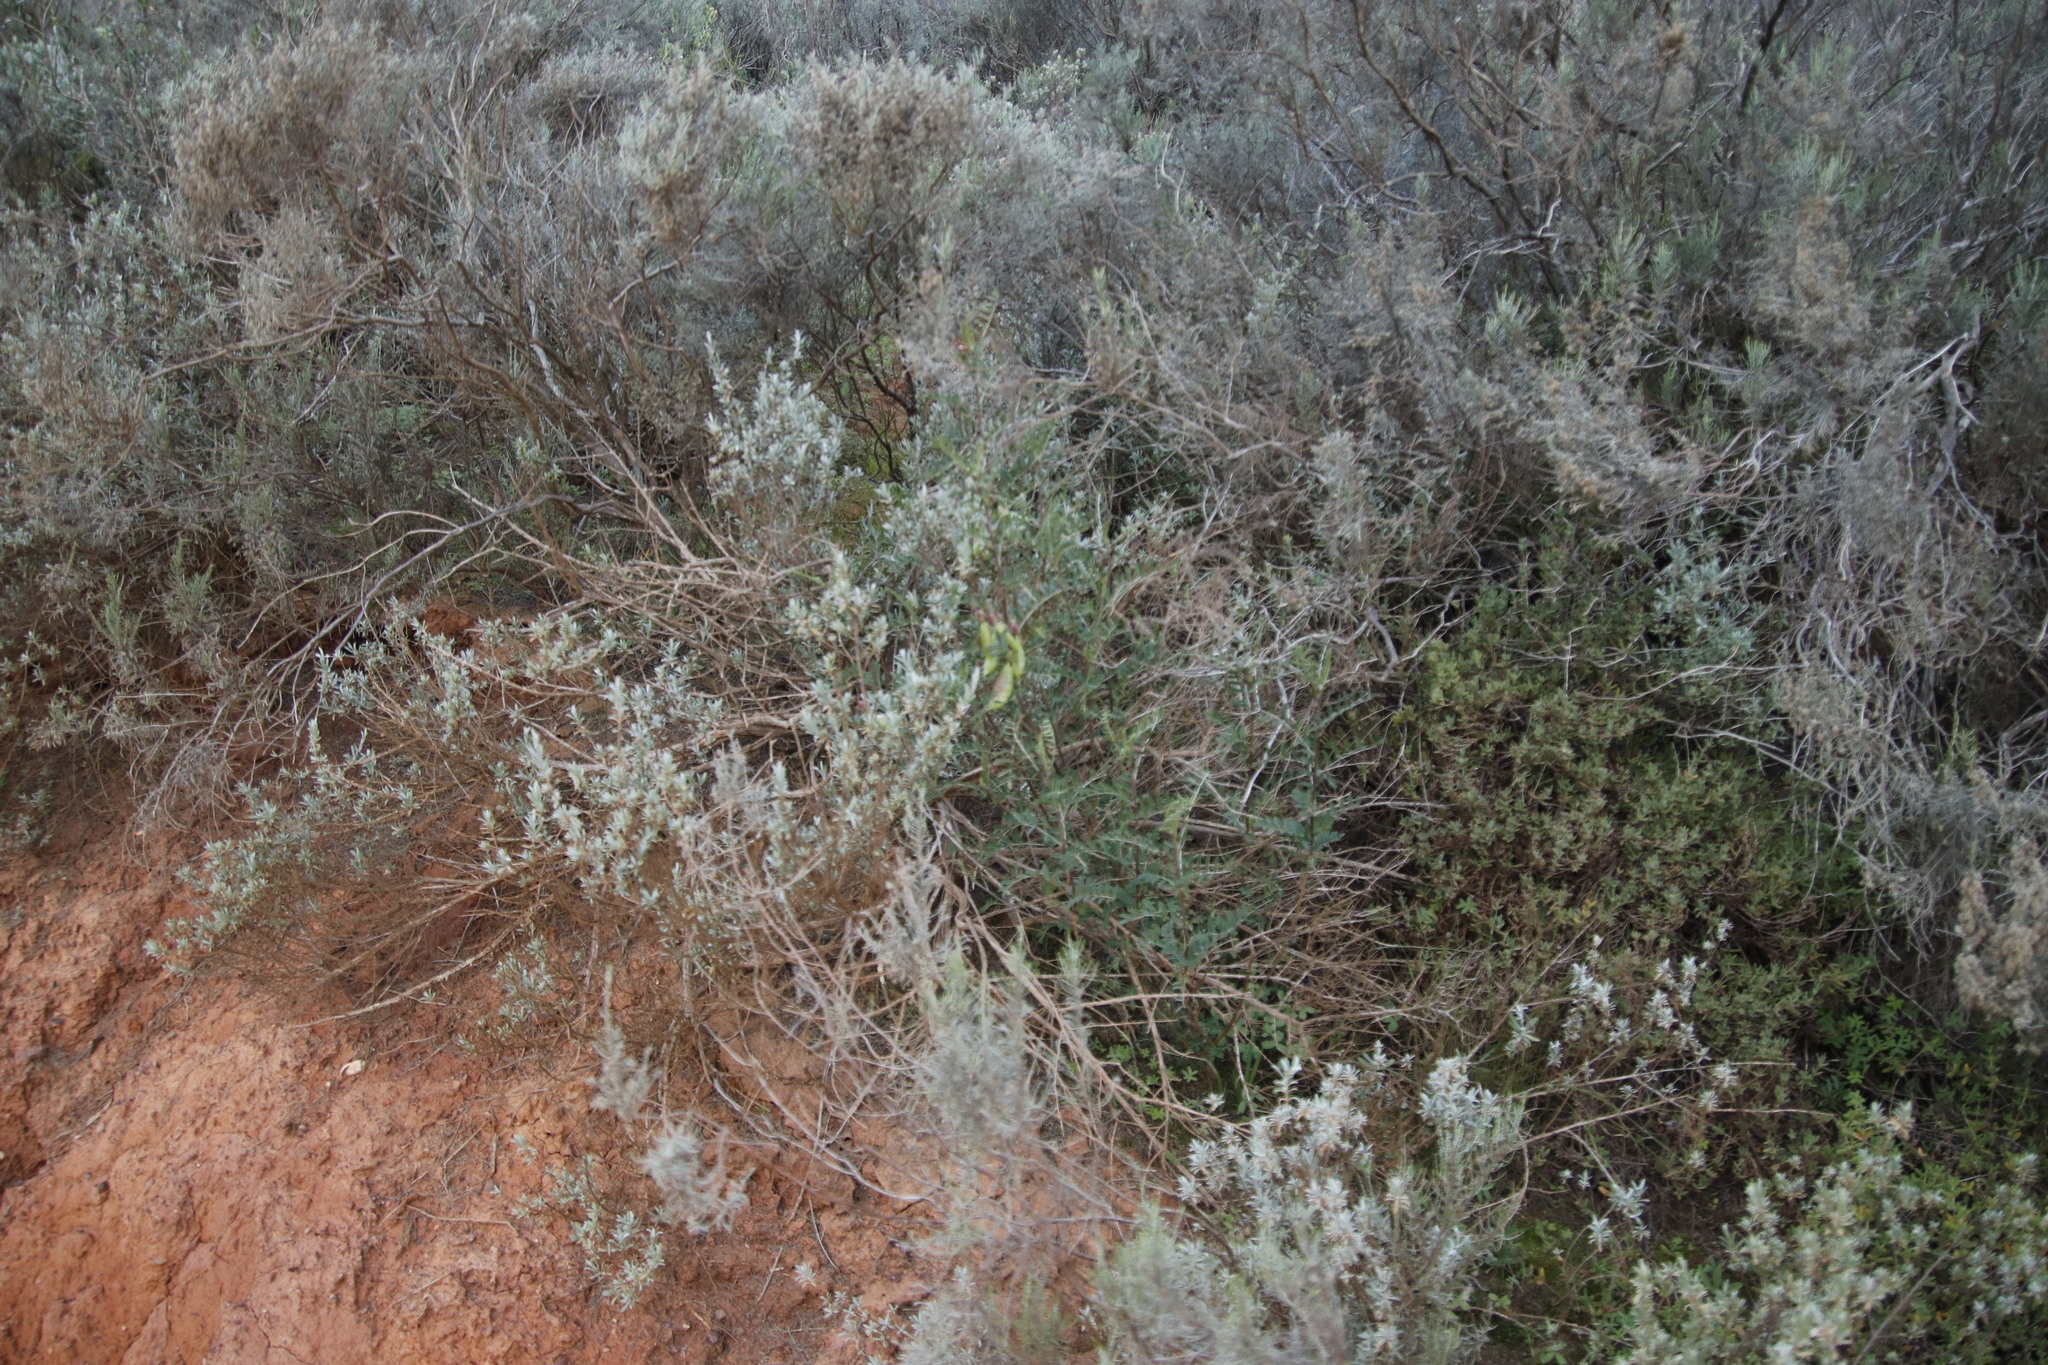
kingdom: Plantae
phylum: Tracheophyta
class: Magnoliopsida
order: Fabales
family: Fabaceae
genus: Lessertia
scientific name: Lessertia frutescens
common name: Balloon-pea
